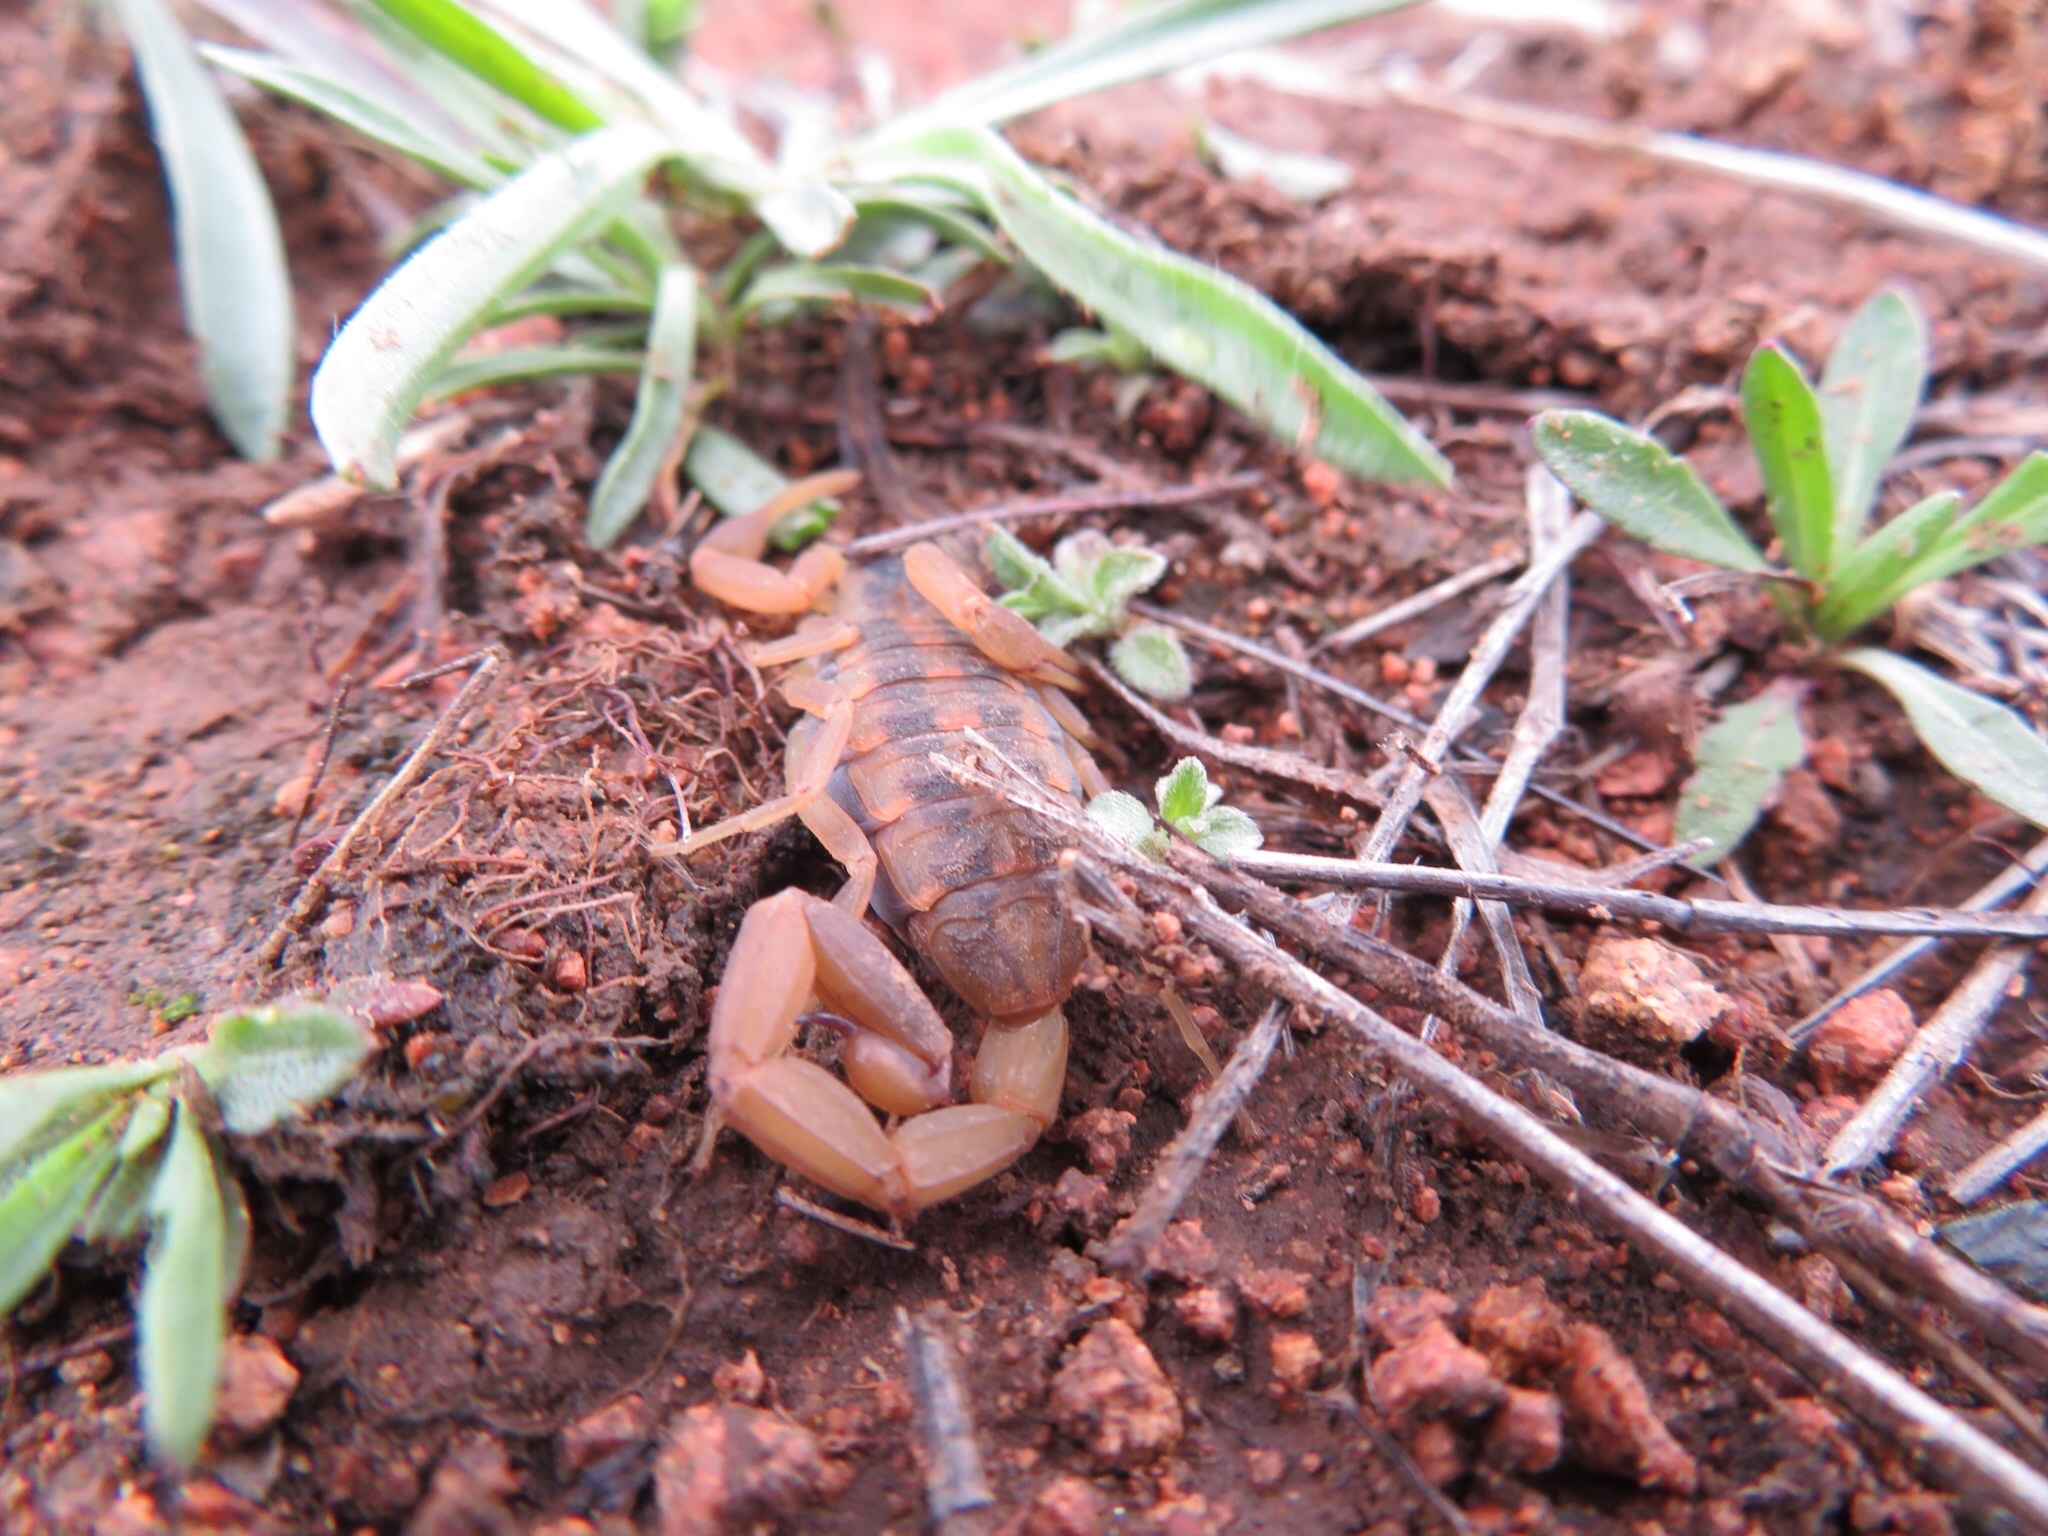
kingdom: Animalia
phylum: Arthropoda
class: Arachnida
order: Scorpiones
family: Buthidae
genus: Centruroides
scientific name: Centruroides vittatus
